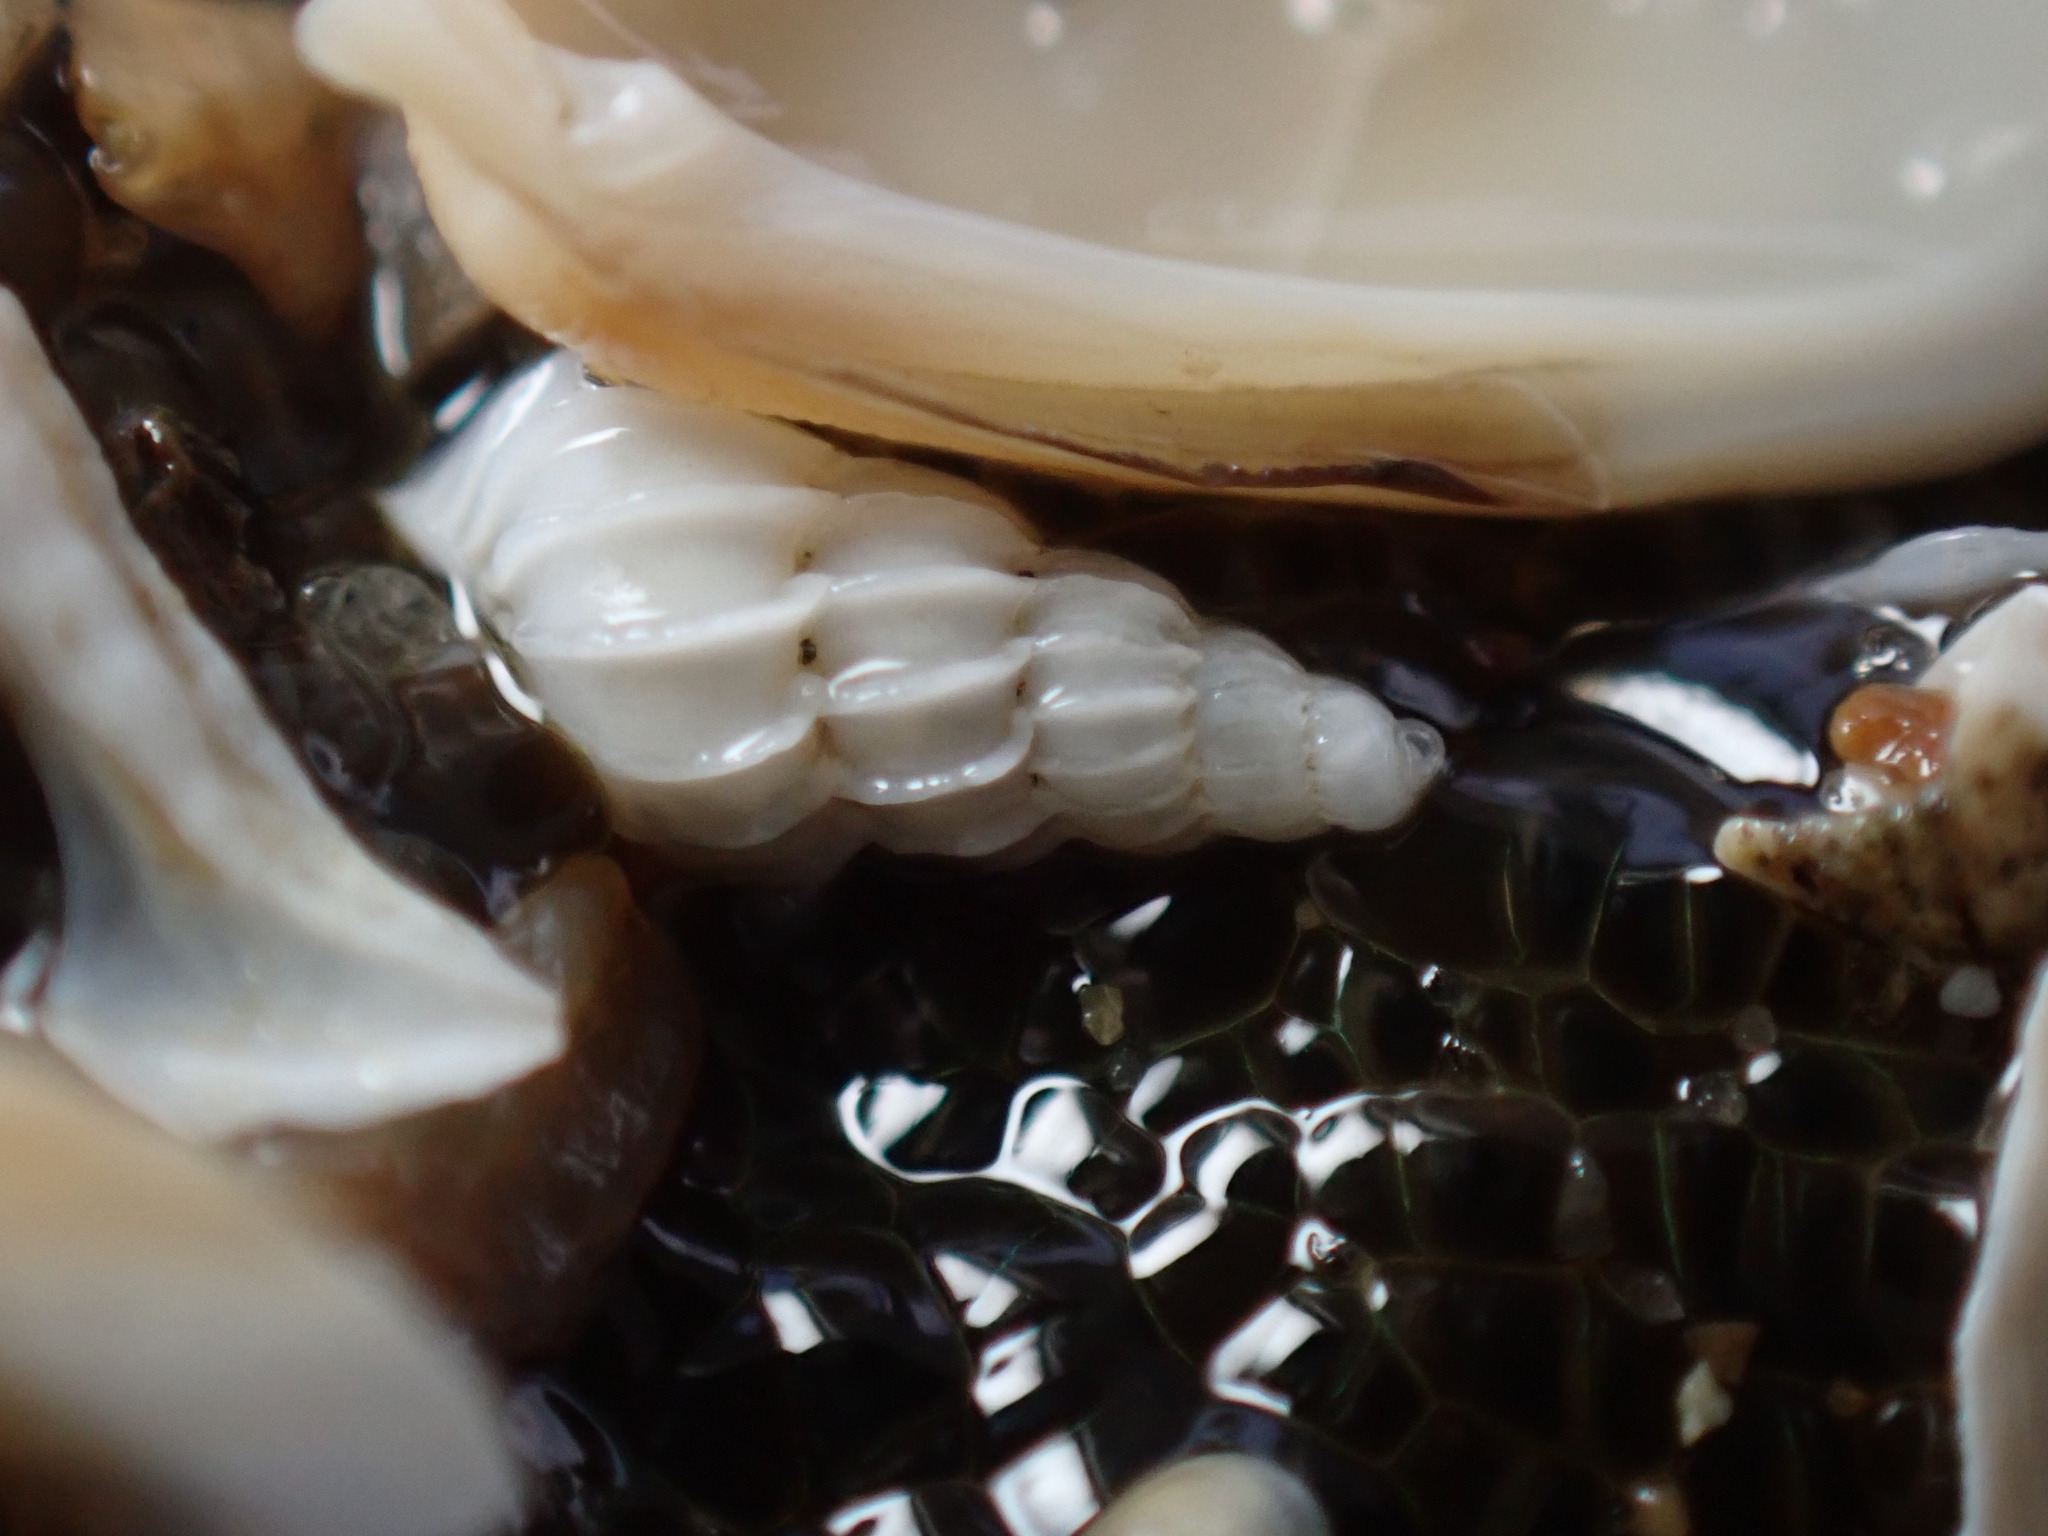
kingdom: Animalia
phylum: Mollusca
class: Gastropoda
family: Epitoniidae
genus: Epitonium
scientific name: Epitonium tinctum
